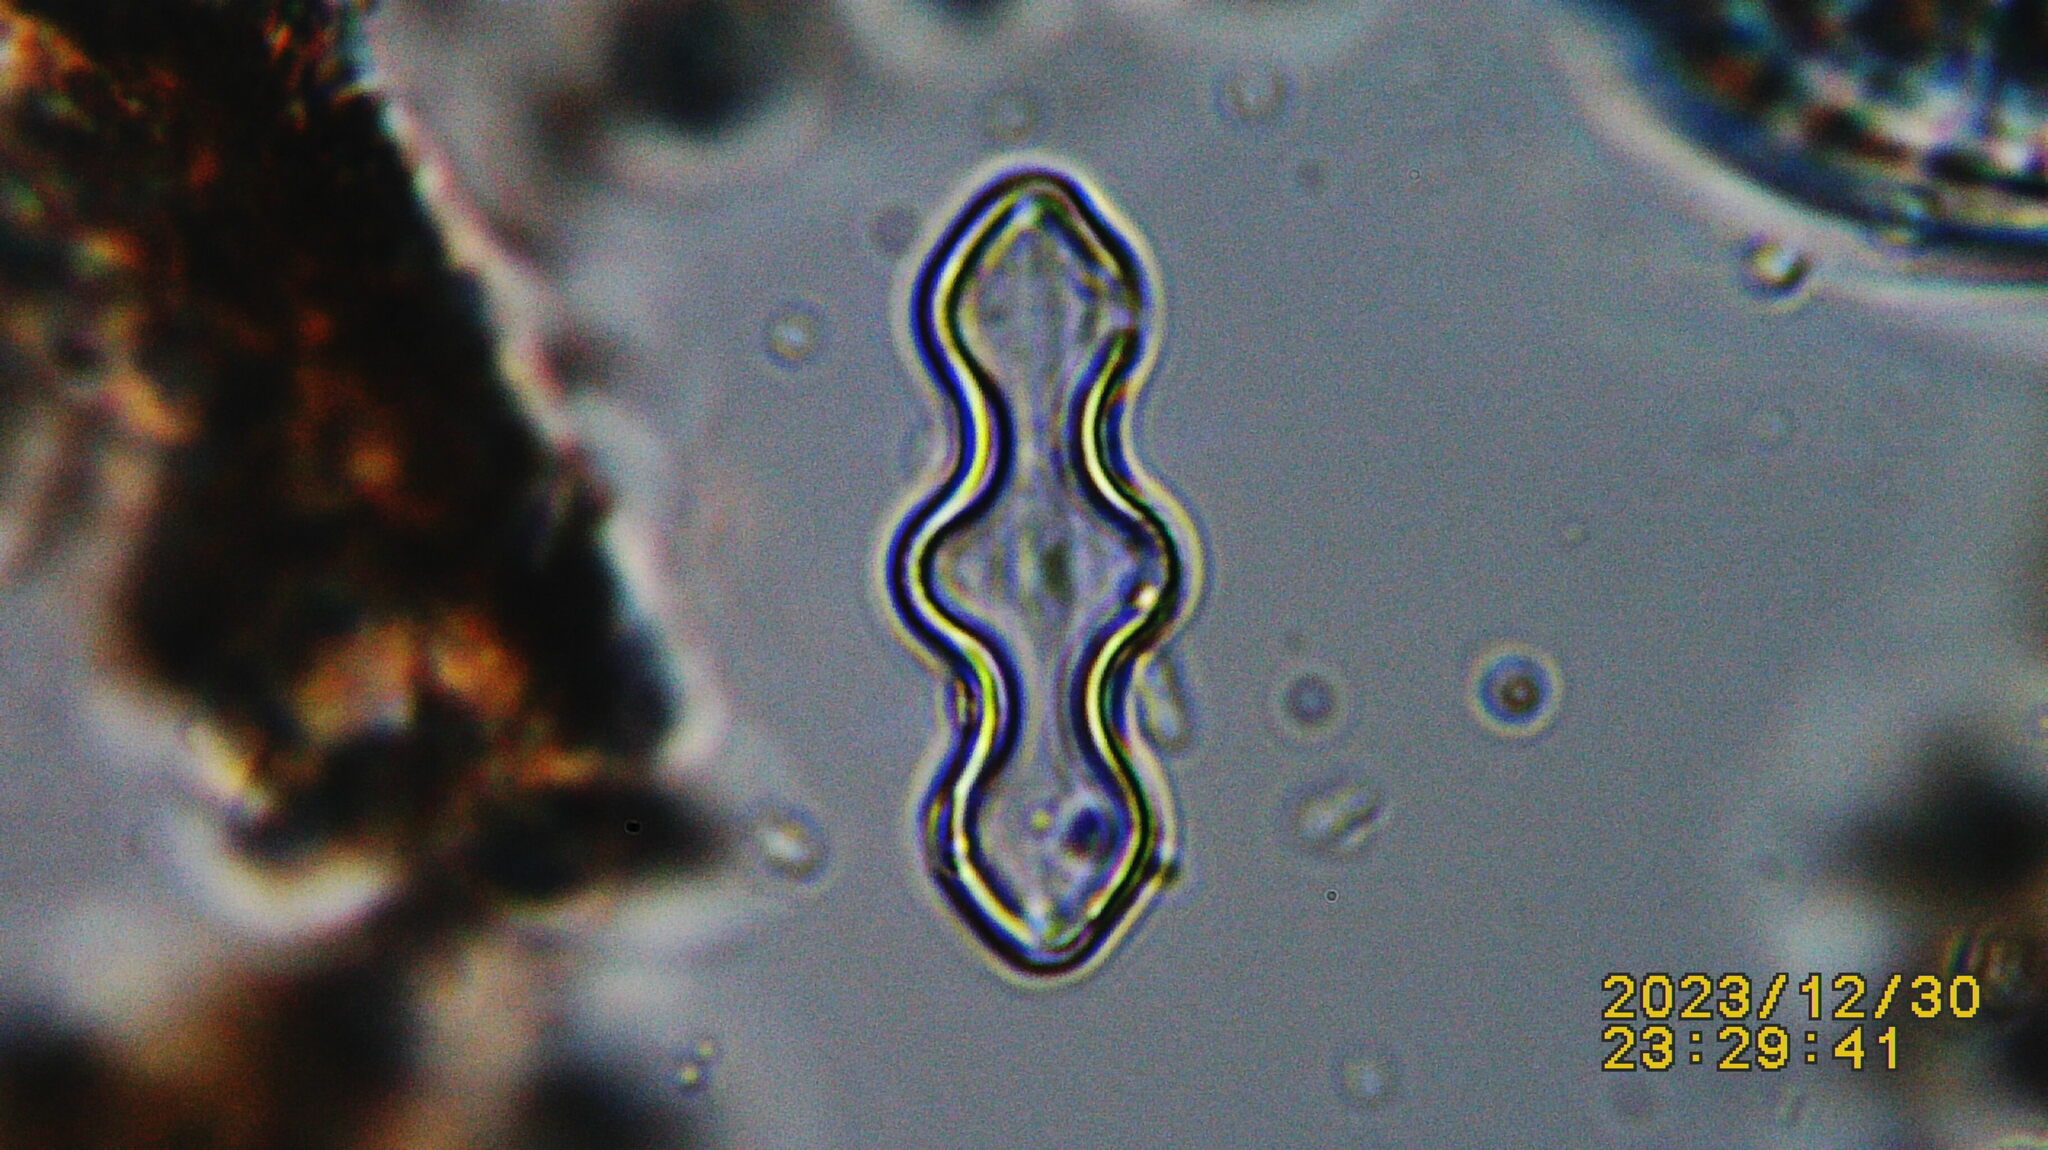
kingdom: Chromista
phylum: Ochrophyta
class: Bacillariophyceae
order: Naviculales
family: Naviculaceae
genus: Caloneis
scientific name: Caloneis lewisii
